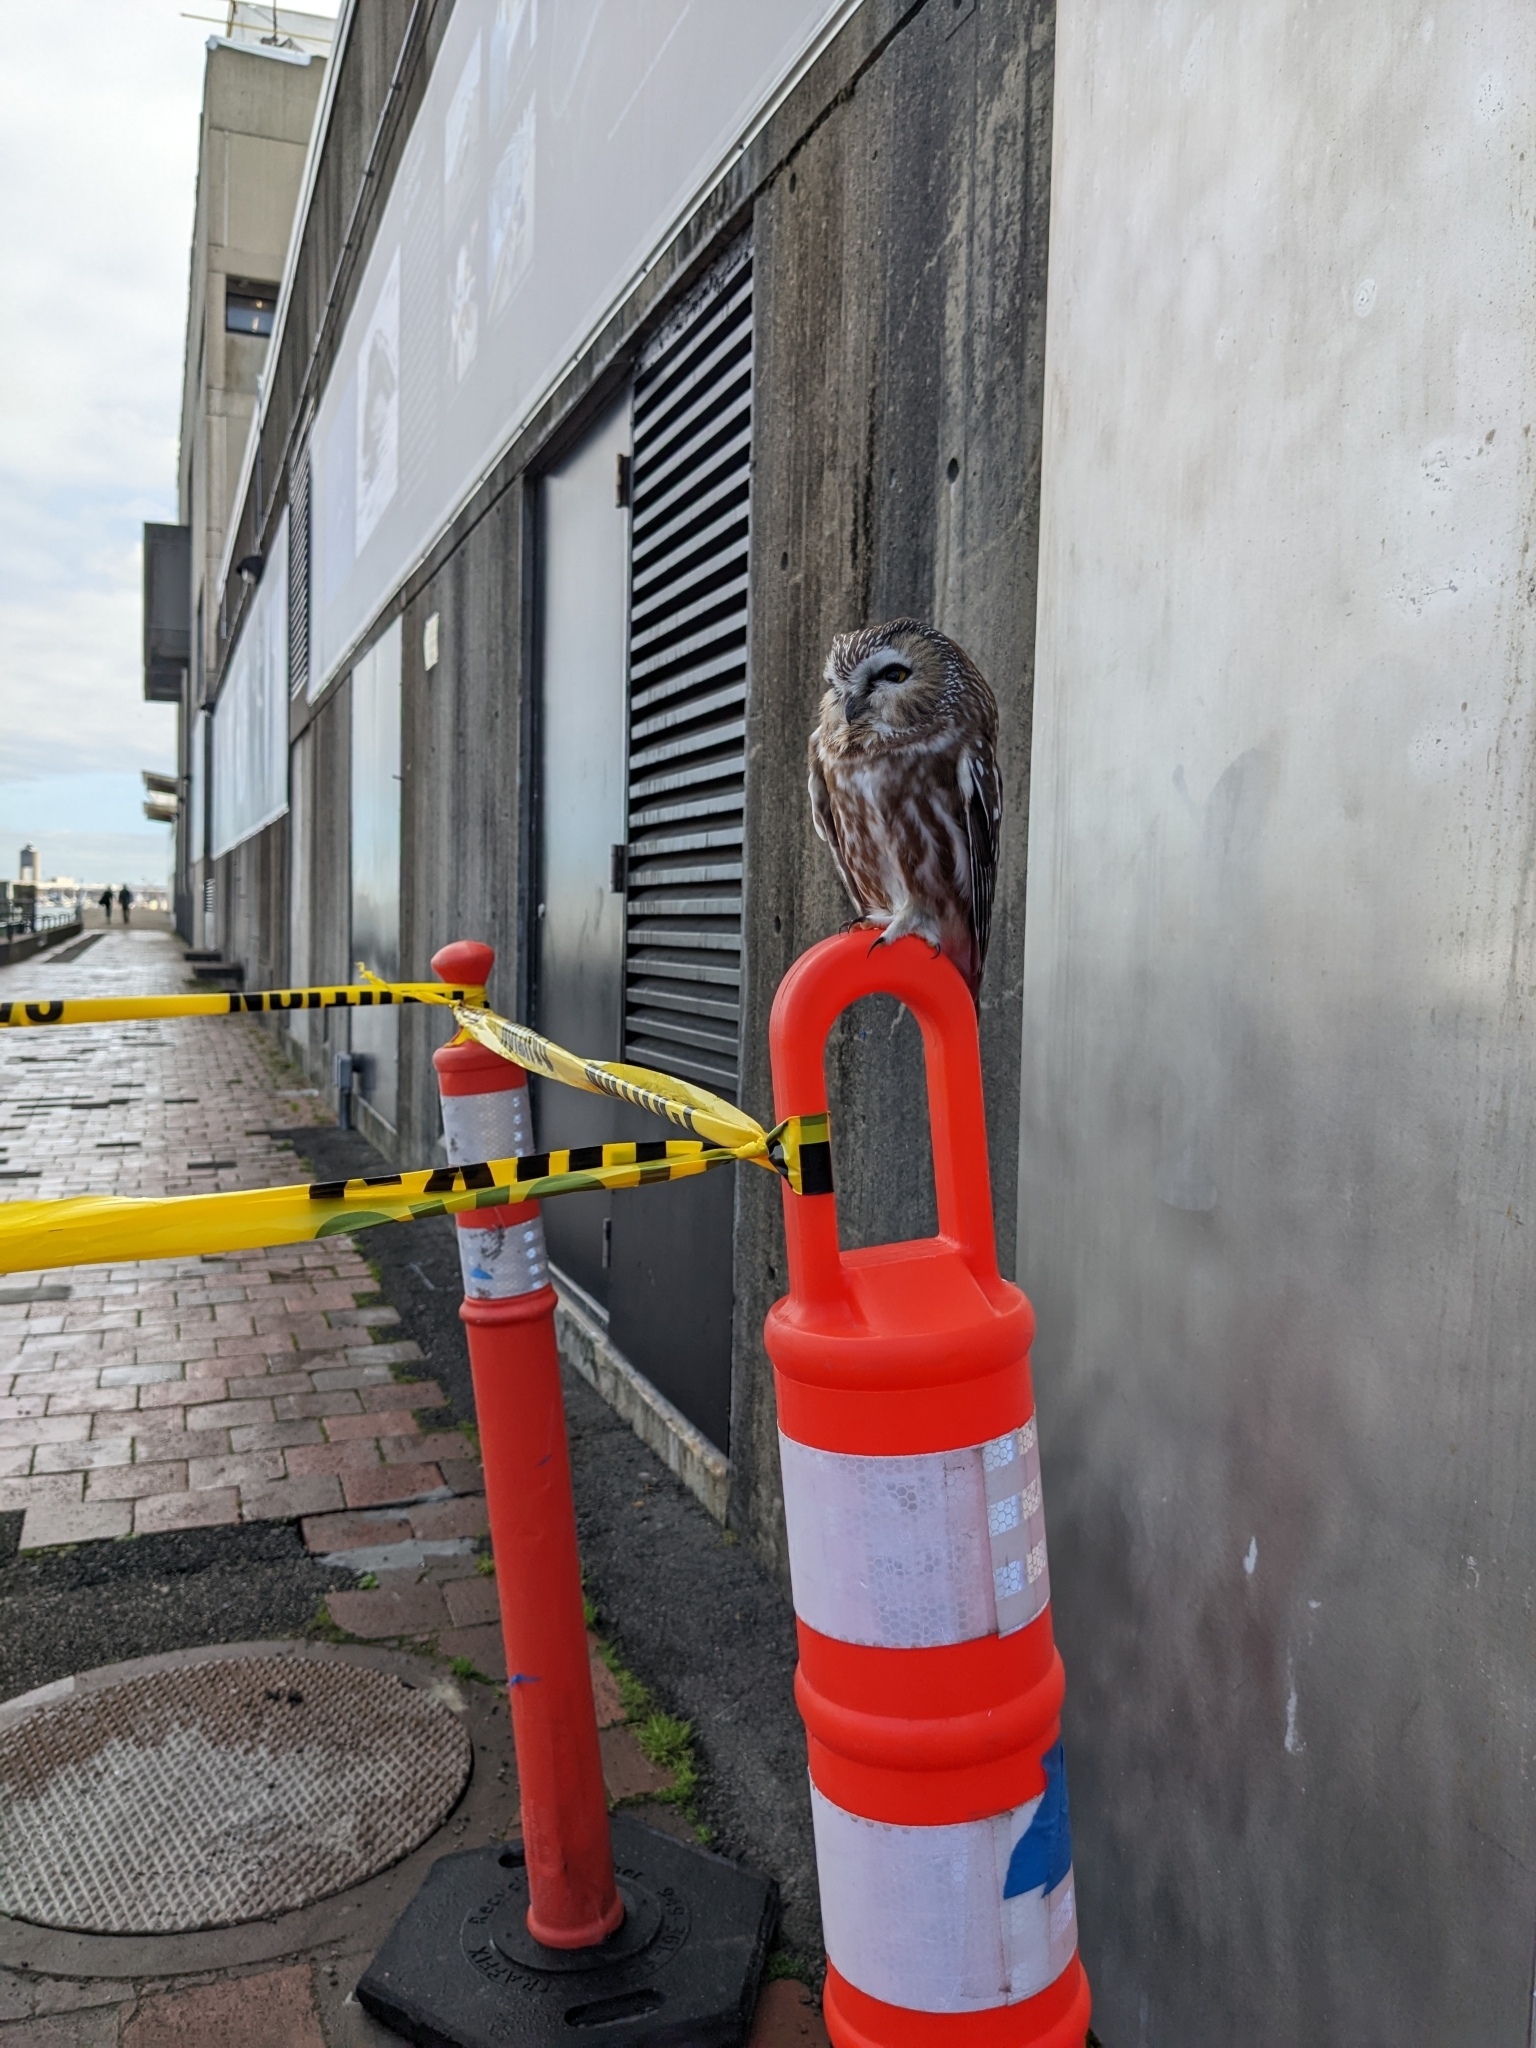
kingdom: Animalia
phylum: Chordata
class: Aves
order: Strigiformes
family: Strigidae
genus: Aegolius
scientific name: Aegolius acadicus
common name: Northern saw-whet owl
